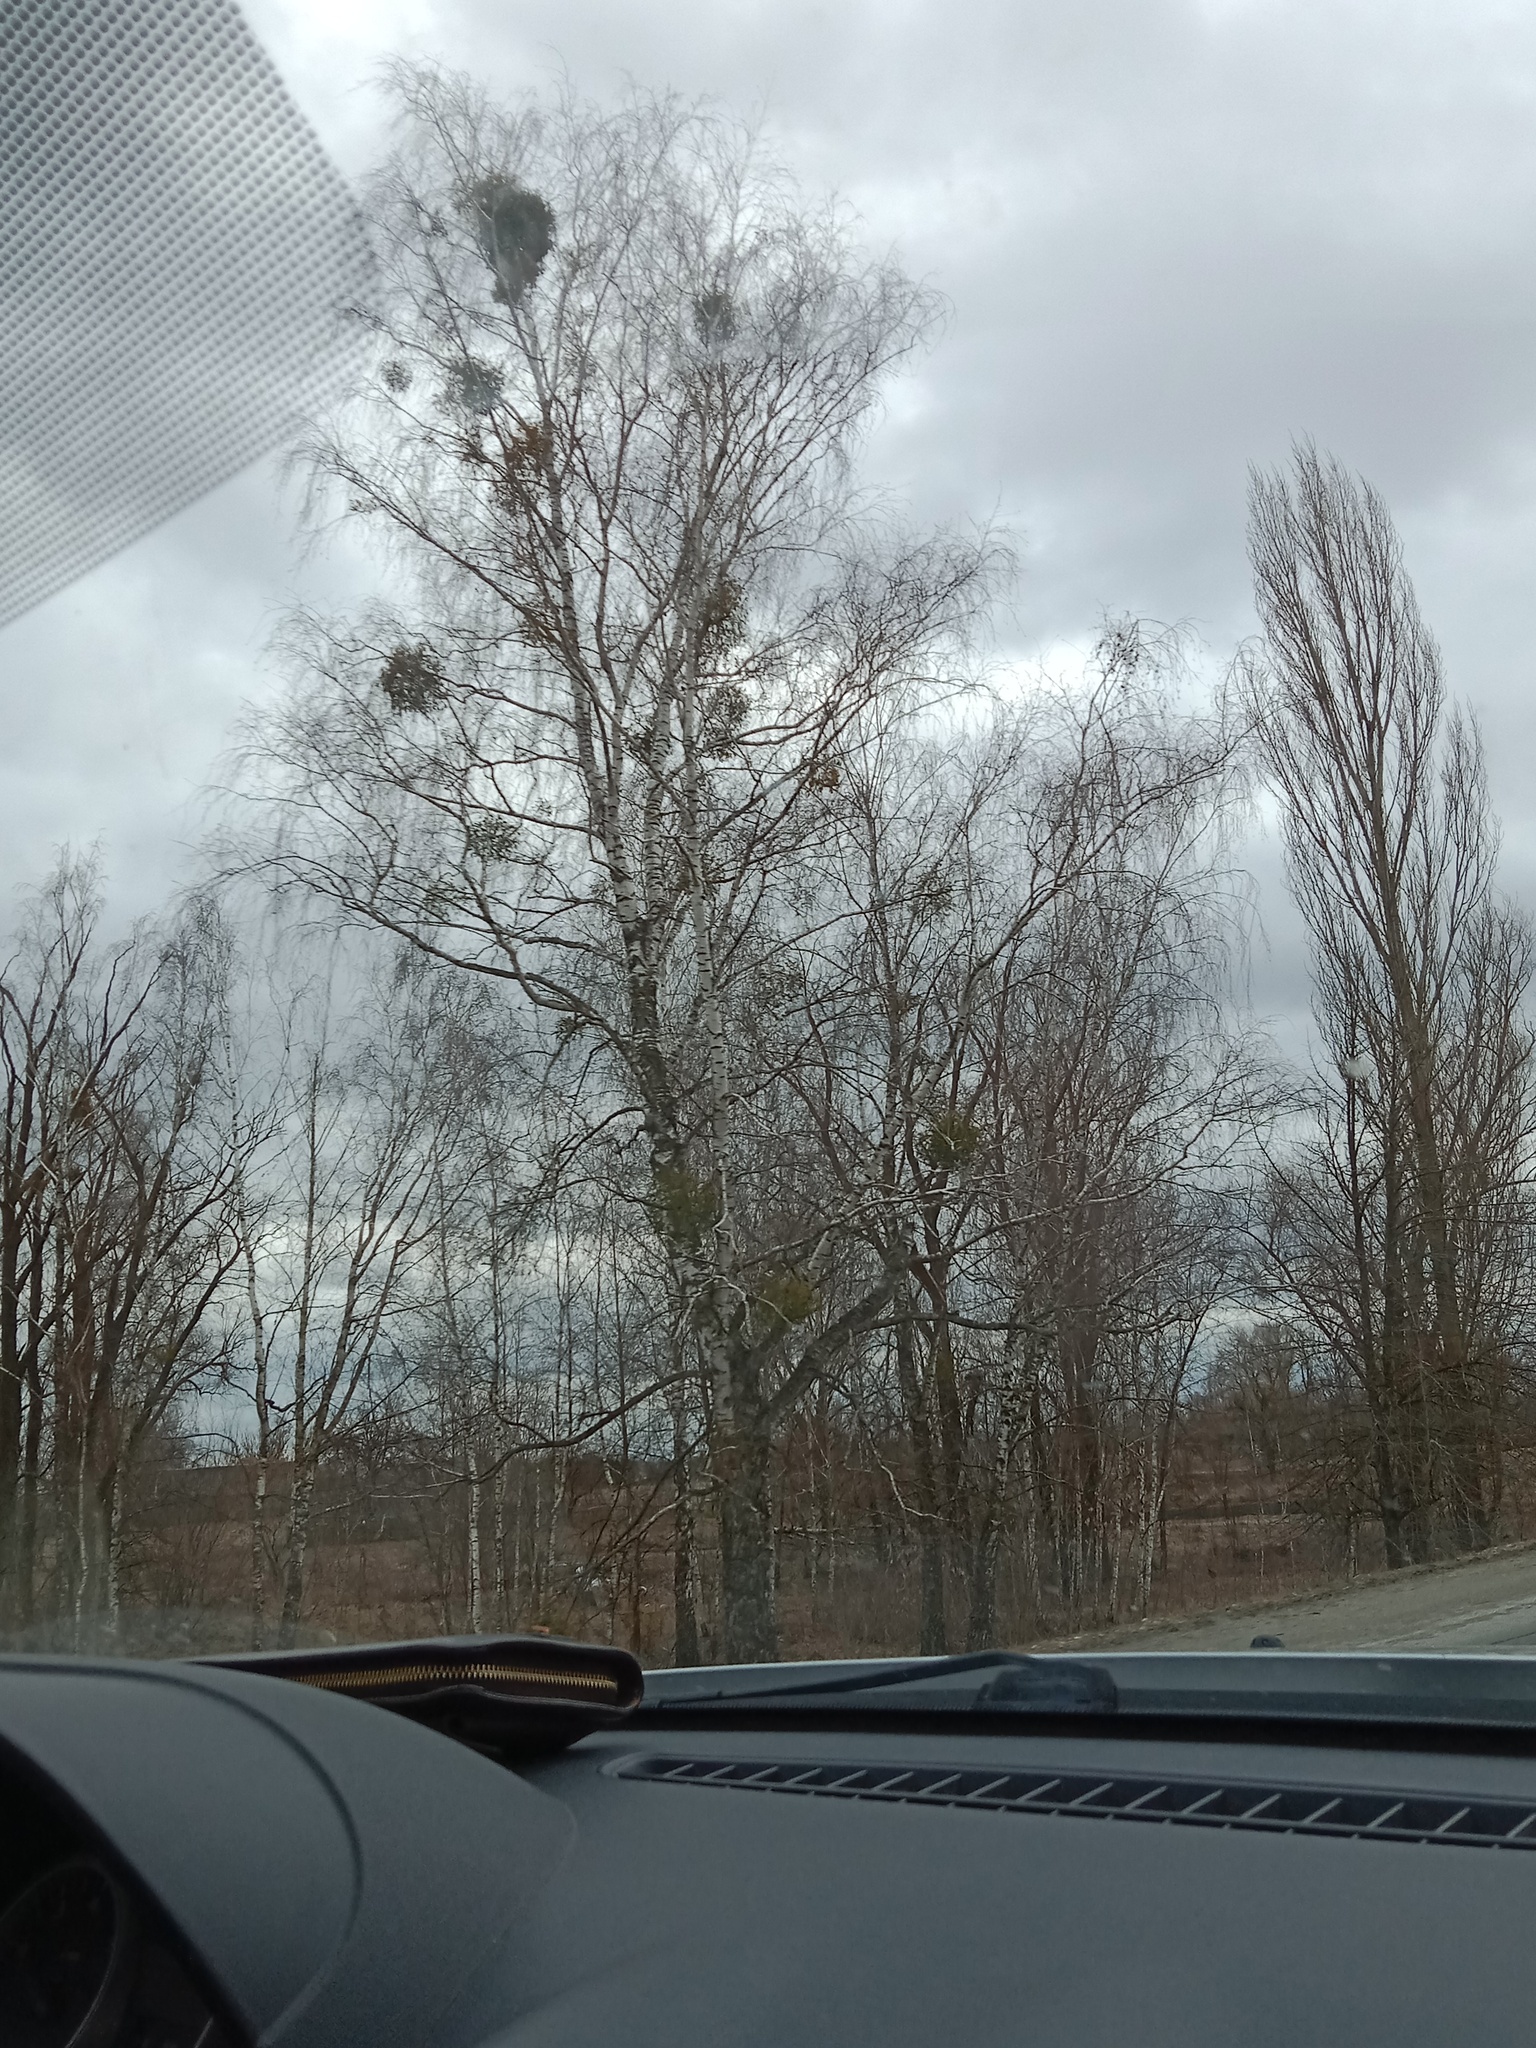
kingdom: Plantae
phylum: Tracheophyta
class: Magnoliopsida
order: Santalales
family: Viscaceae
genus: Viscum
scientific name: Viscum album
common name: Mistletoe
